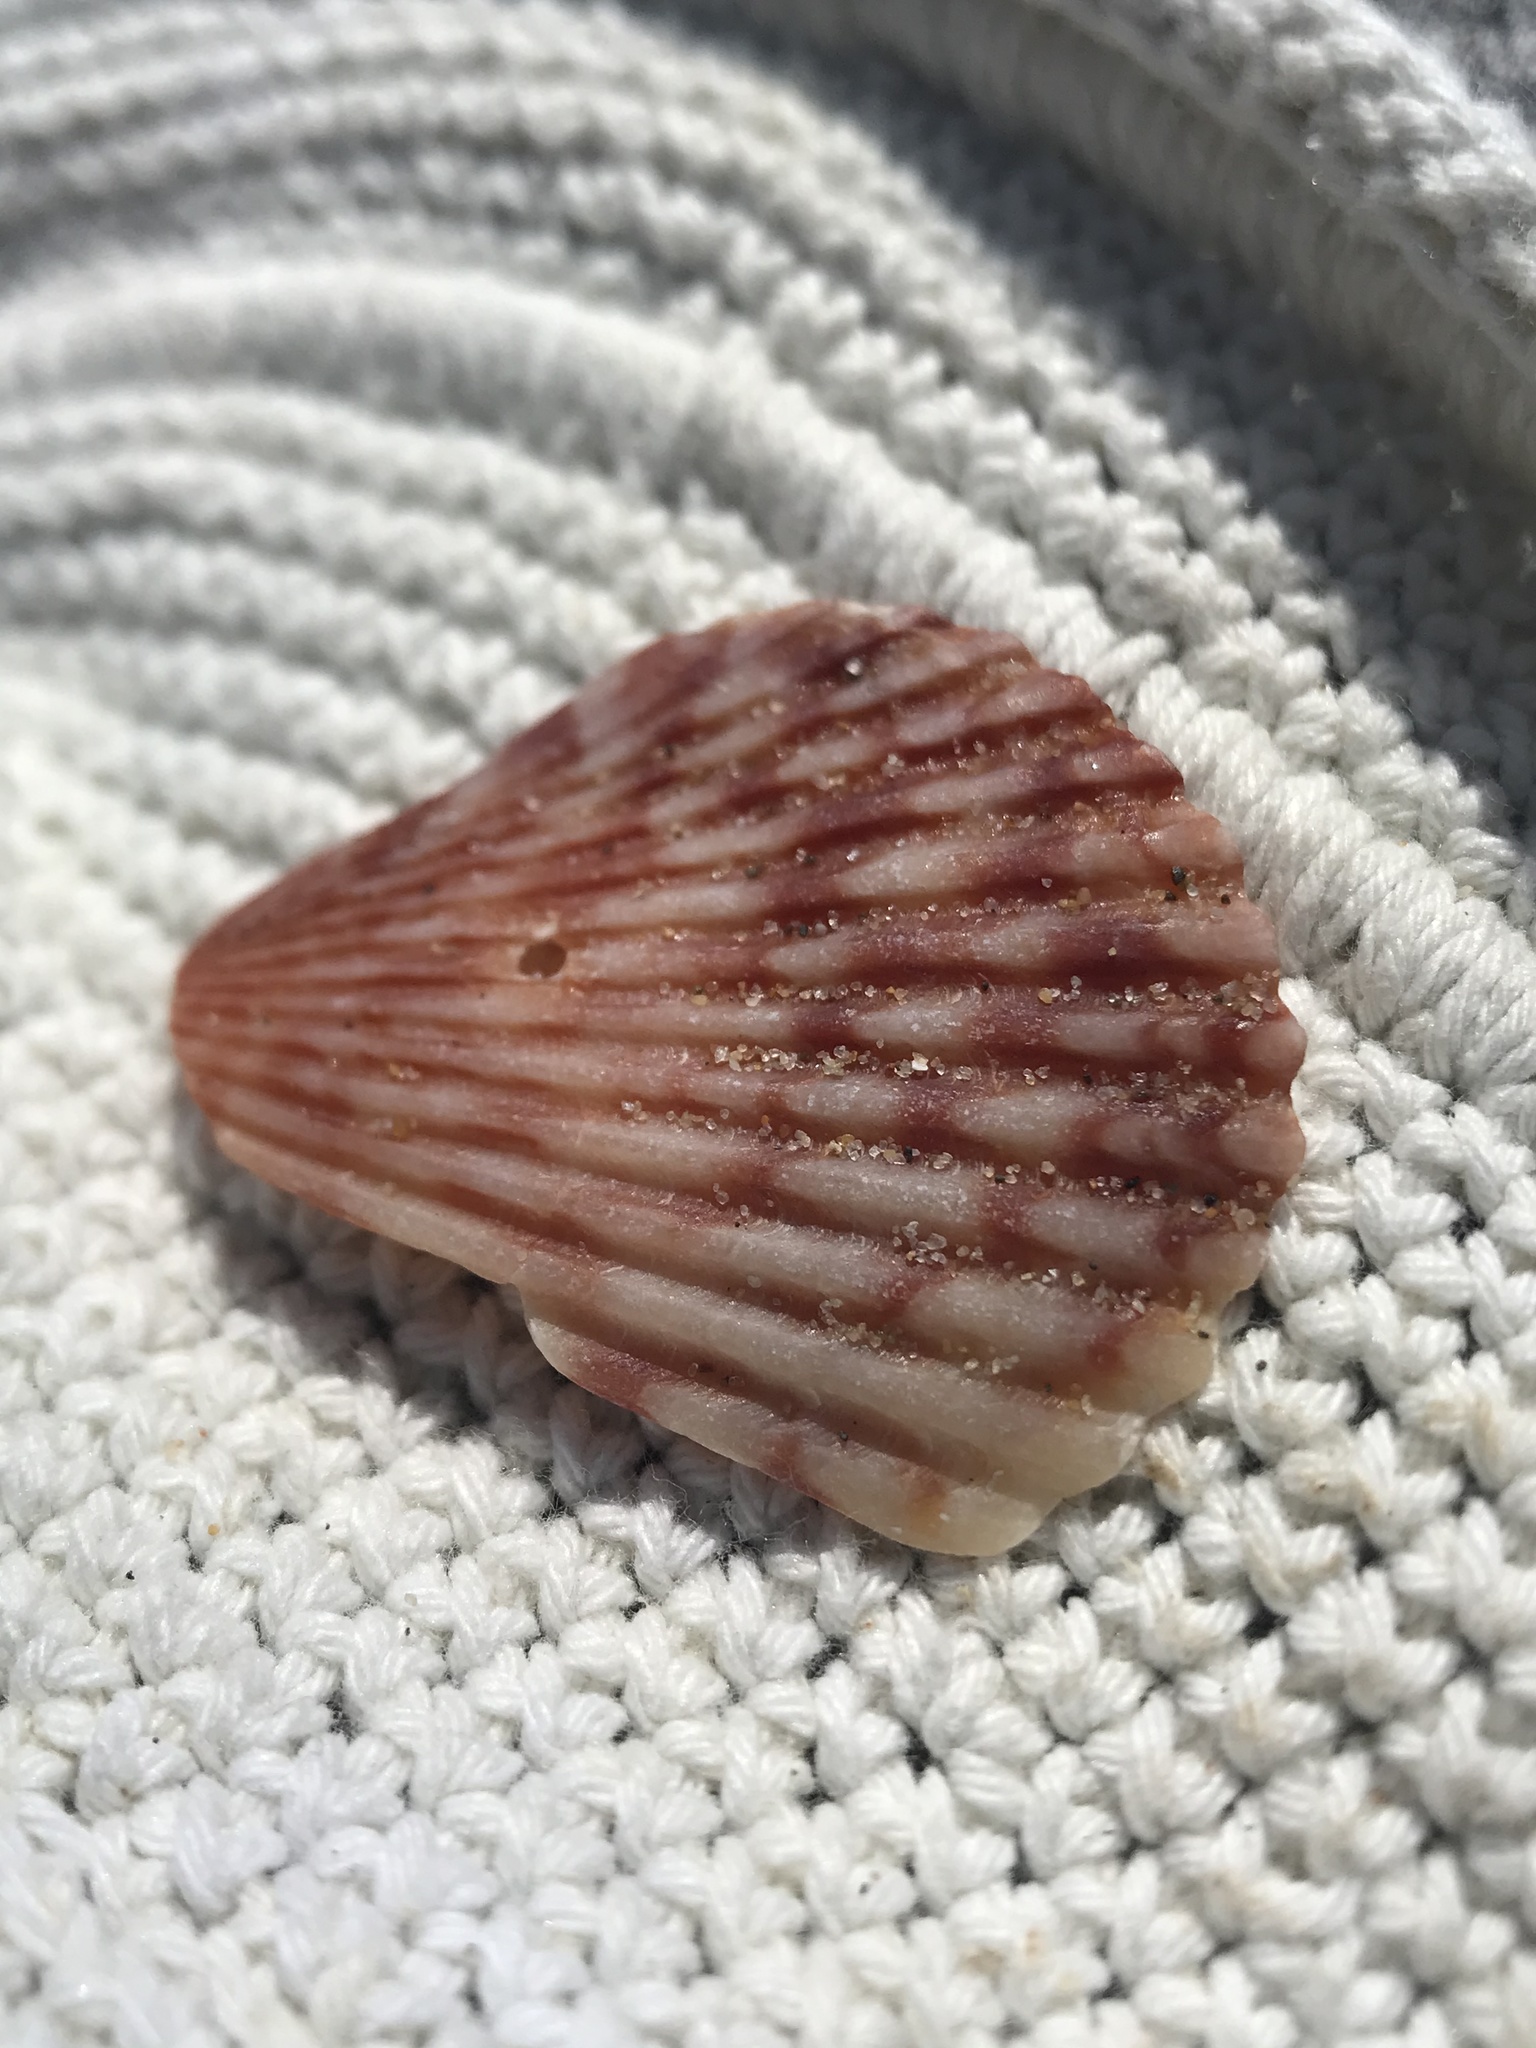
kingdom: Animalia
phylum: Mollusca
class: Bivalvia
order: Pectinida
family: Pectinidae
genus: Argopecten
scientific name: Argopecten ventricosus
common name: Catarina scallop
